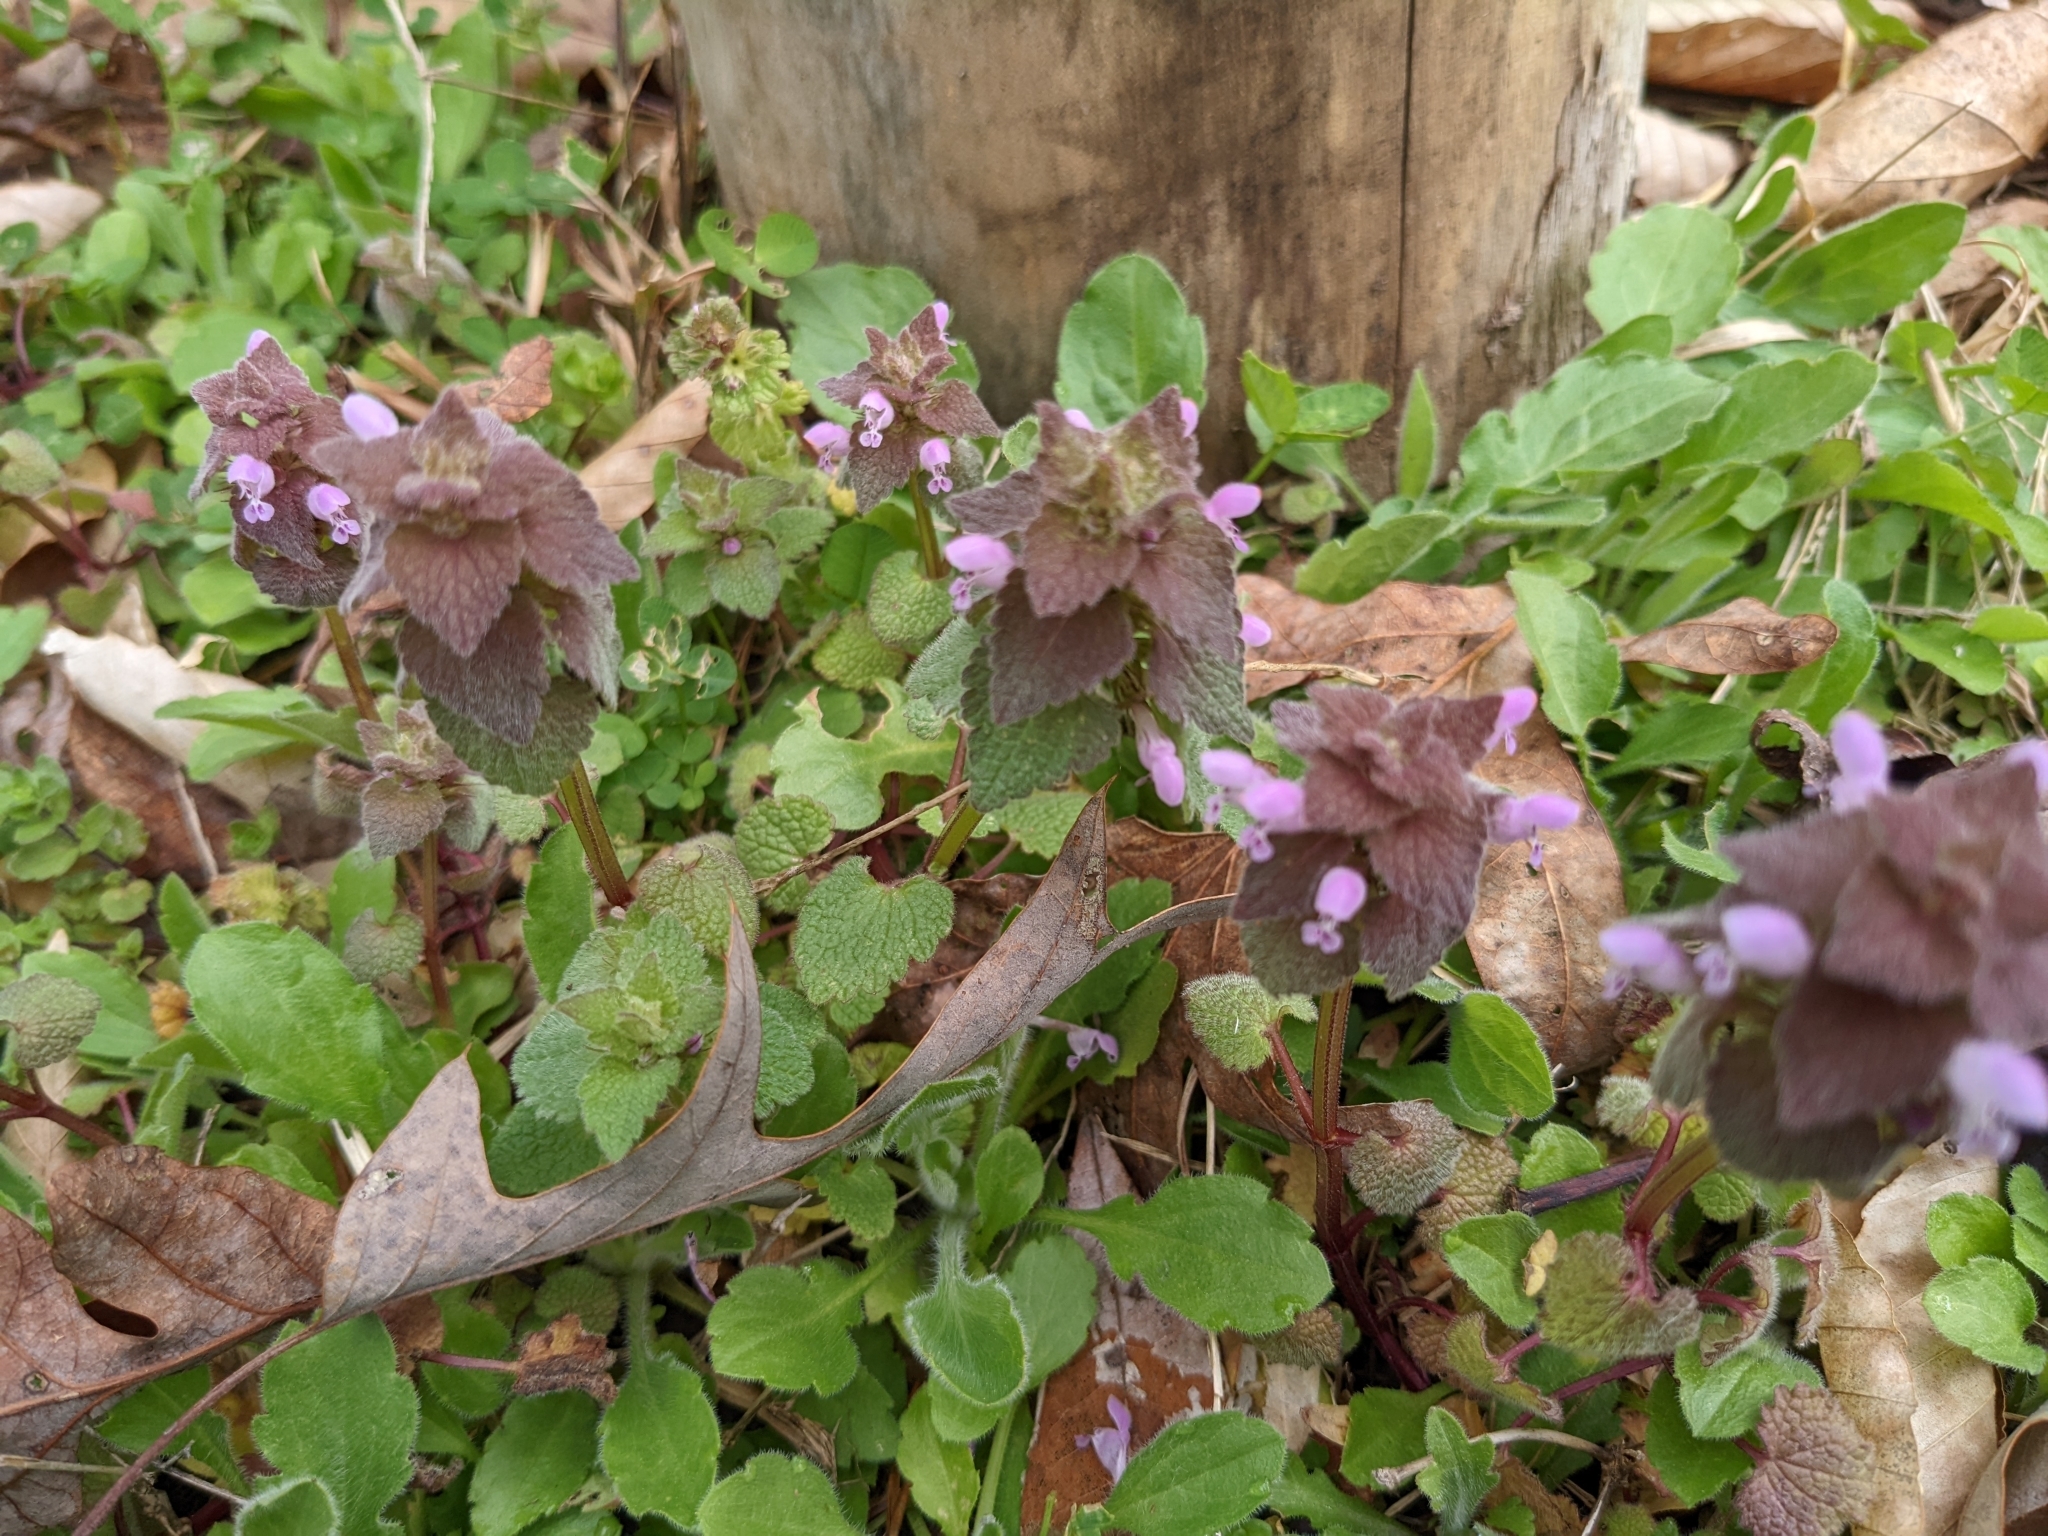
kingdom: Plantae
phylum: Tracheophyta
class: Magnoliopsida
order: Lamiales
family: Lamiaceae
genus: Lamium
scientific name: Lamium purpureum
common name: Red dead-nettle
